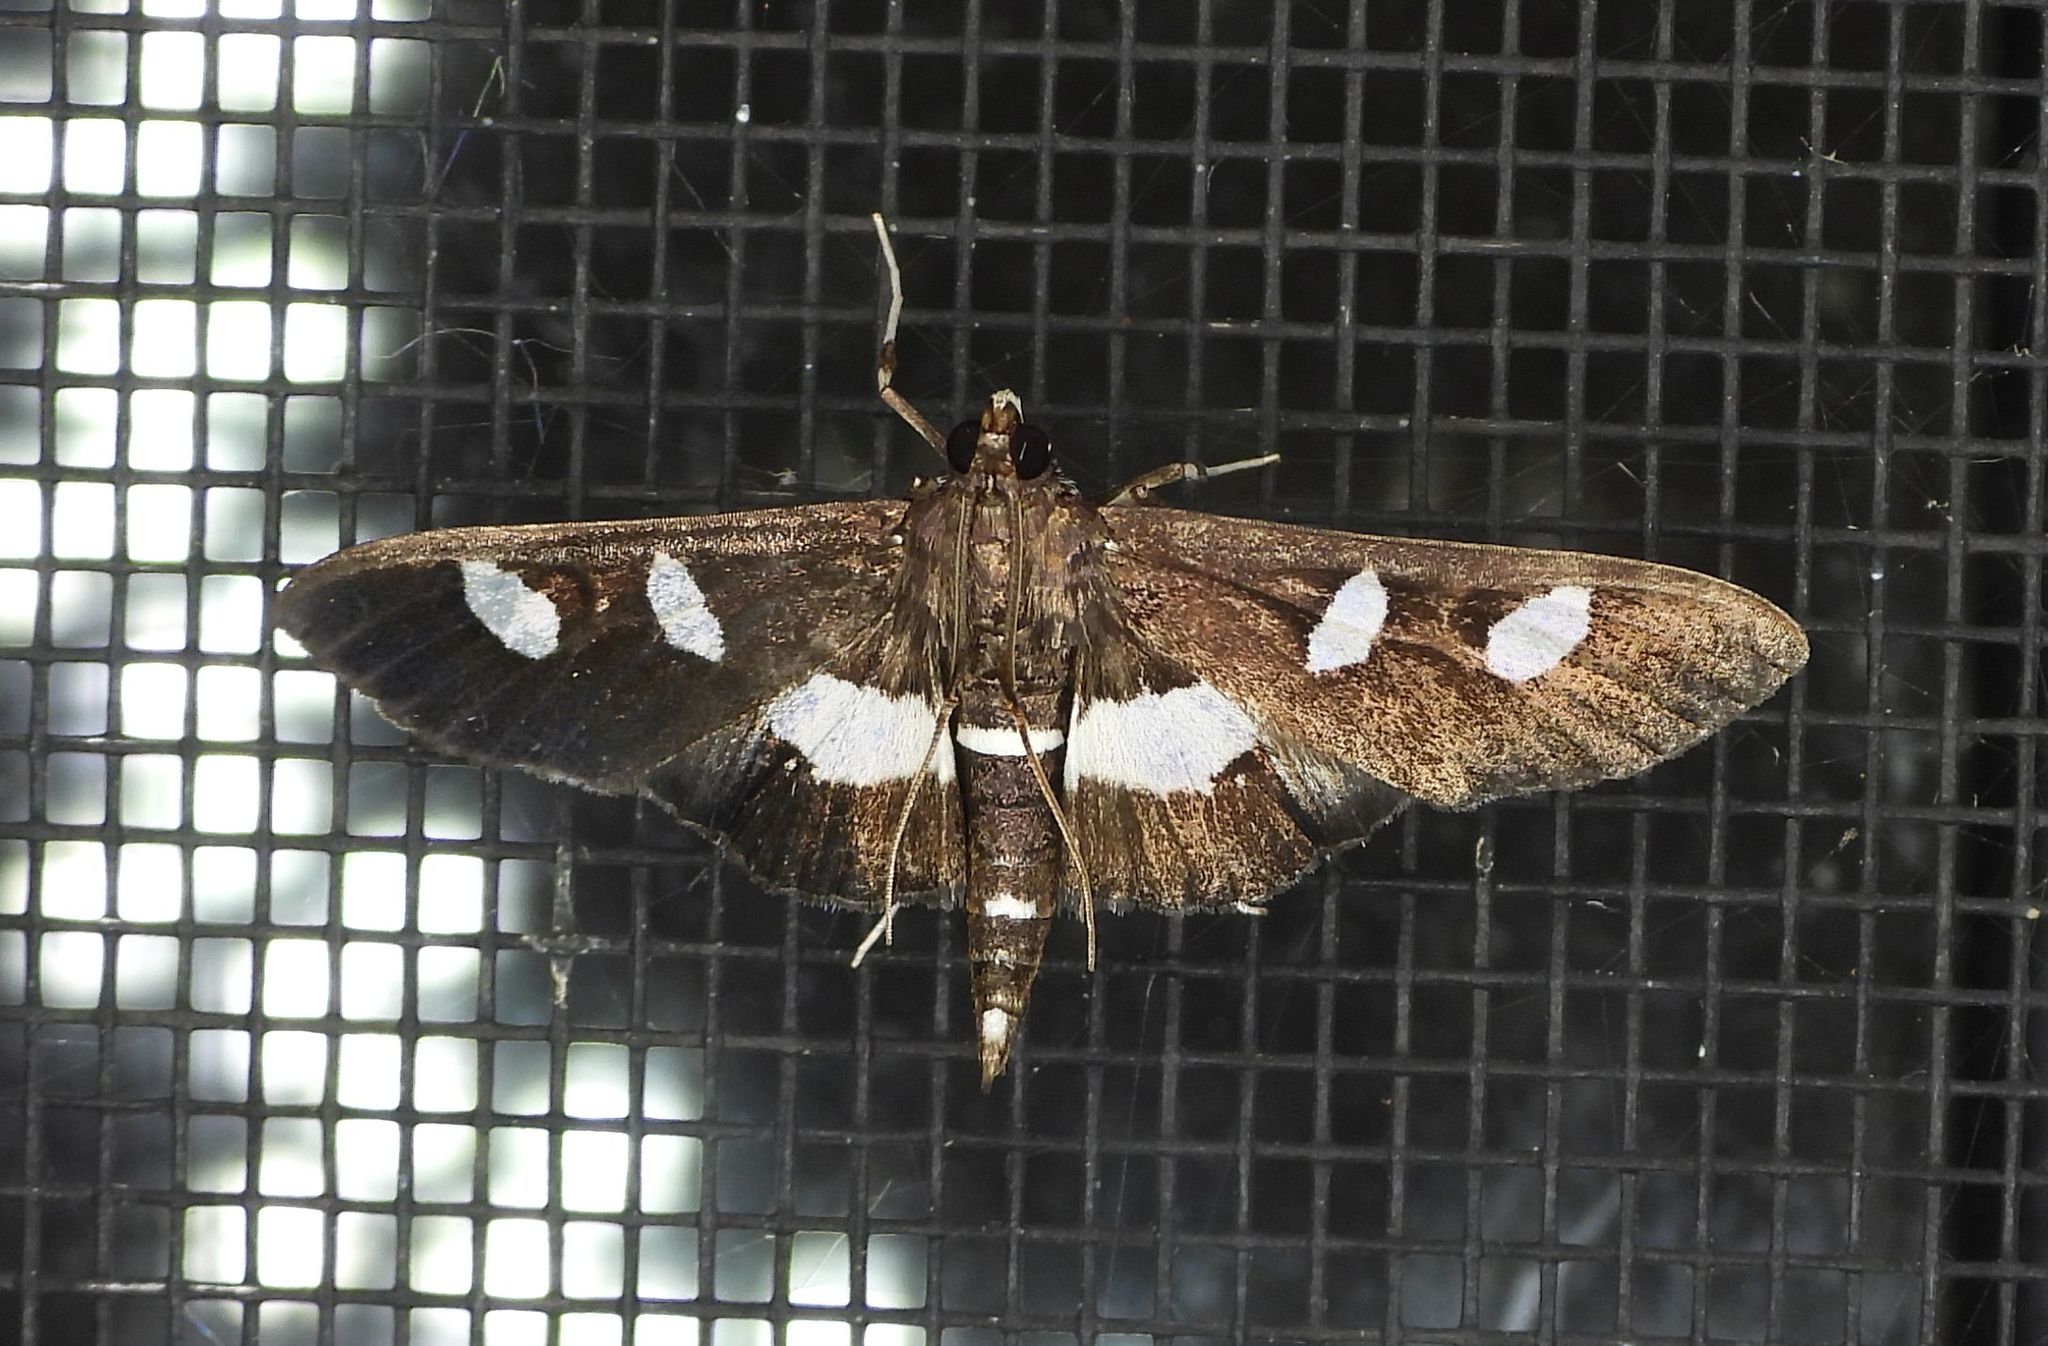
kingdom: Animalia
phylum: Arthropoda
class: Insecta
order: Lepidoptera
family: Crambidae
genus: Desmia
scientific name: Desmia
